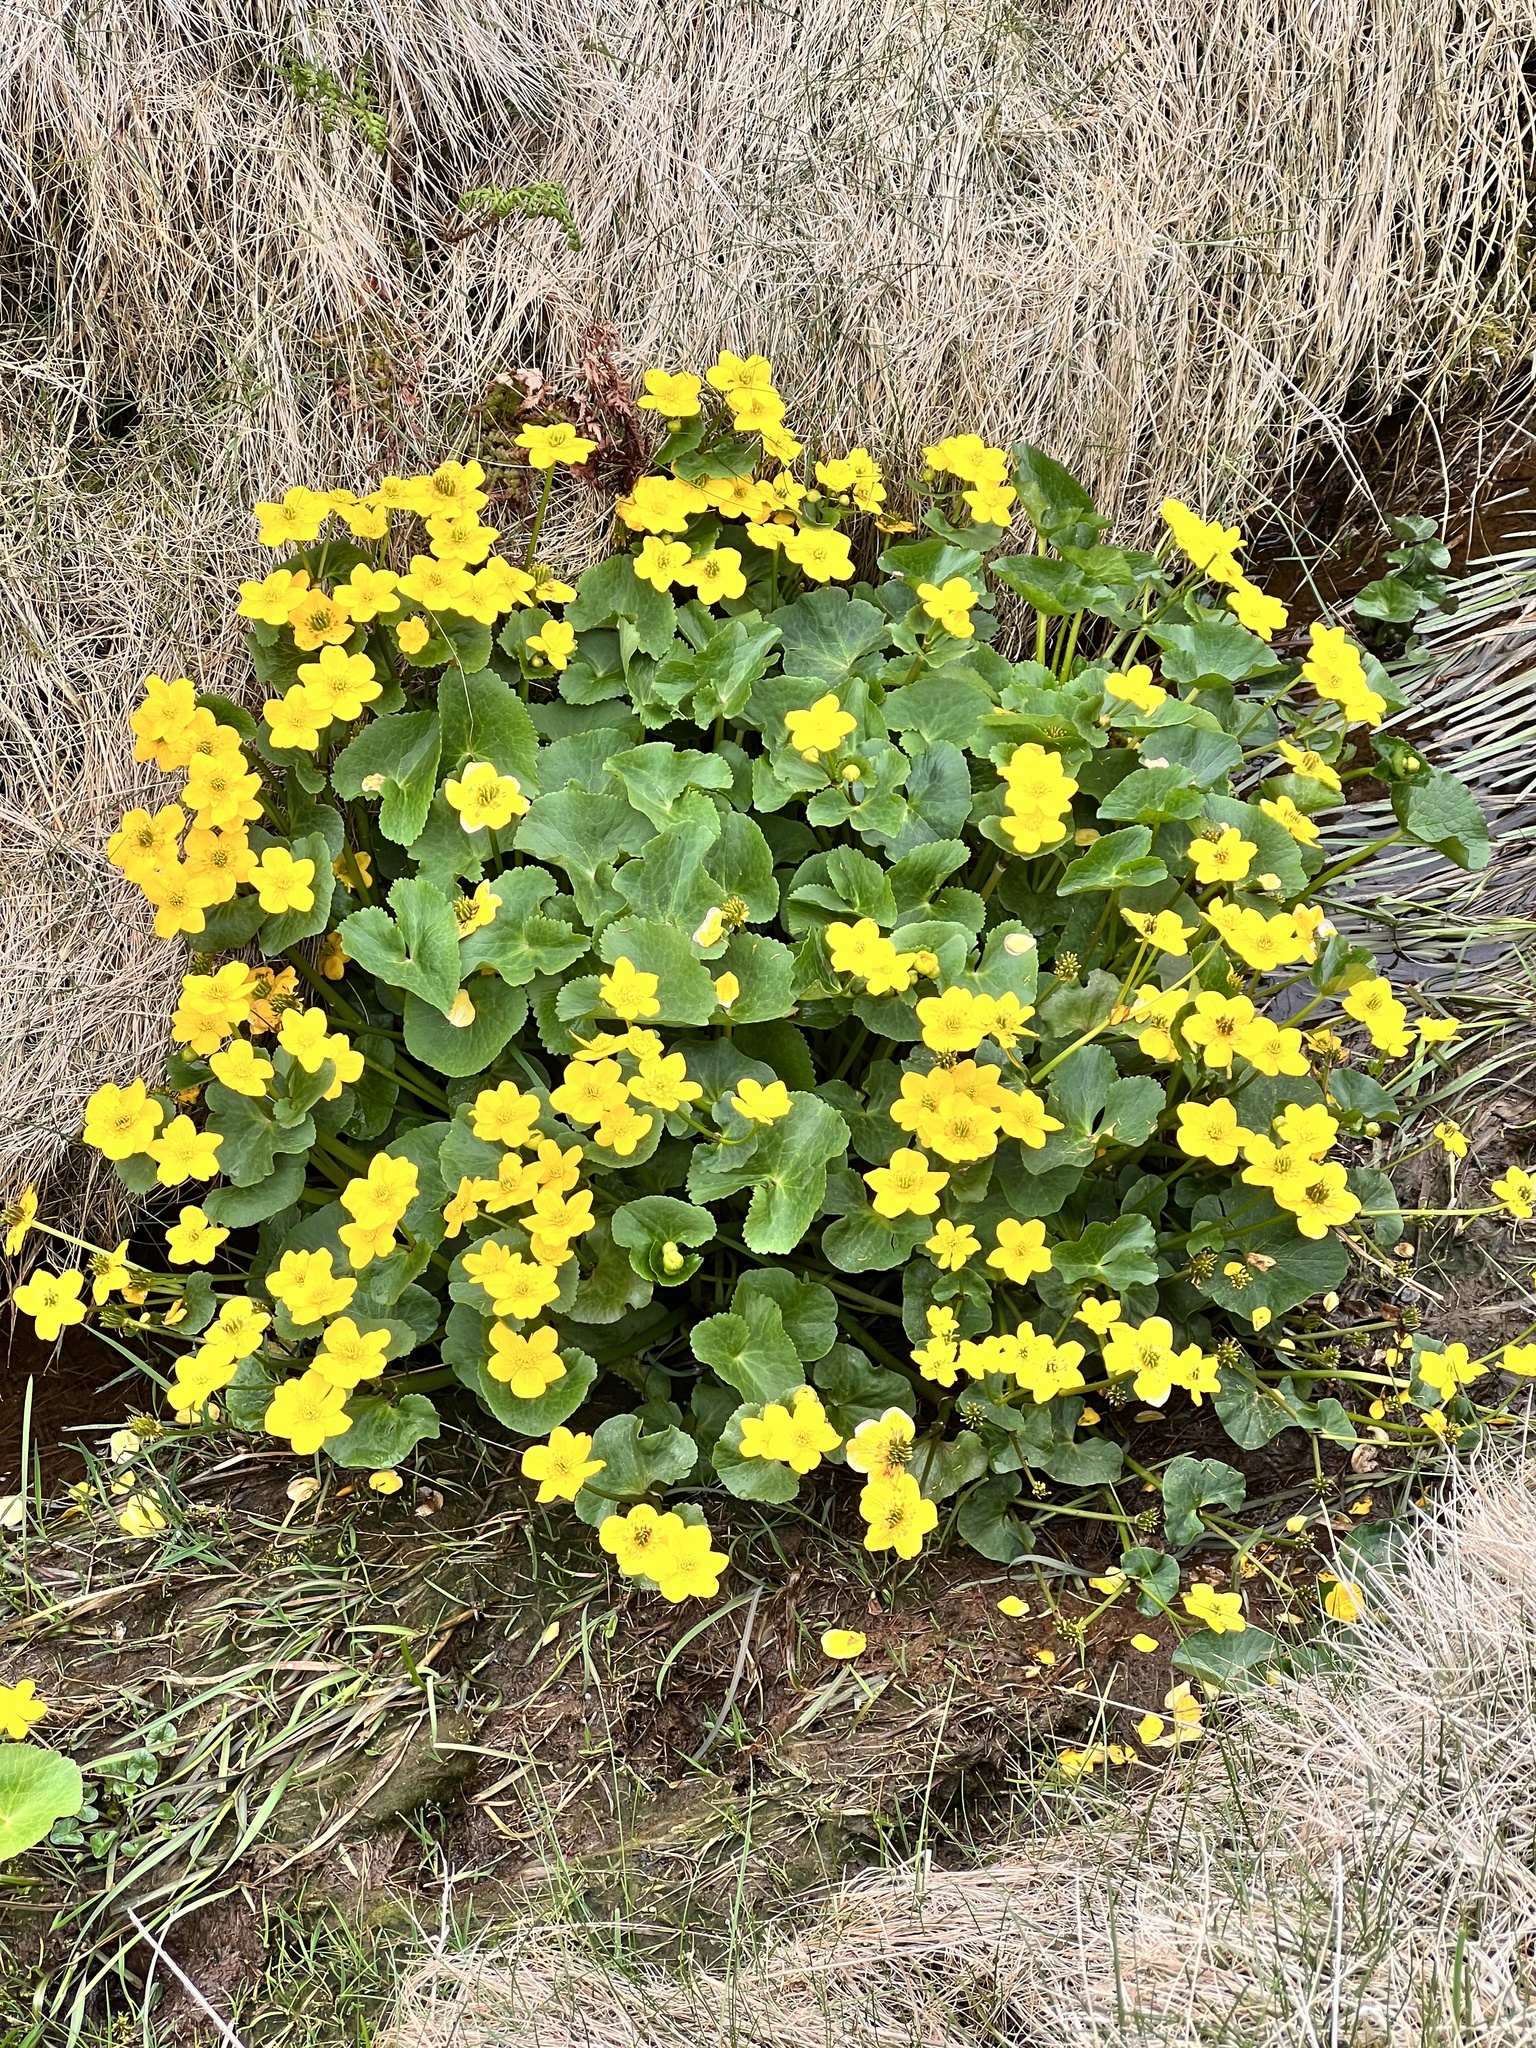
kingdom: Plantae
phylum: Tracheophyta
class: Magnoliopsida
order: Ranunculales
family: Ranunculaceae
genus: Caltha
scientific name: Caltha palustris
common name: Marsh marigold
